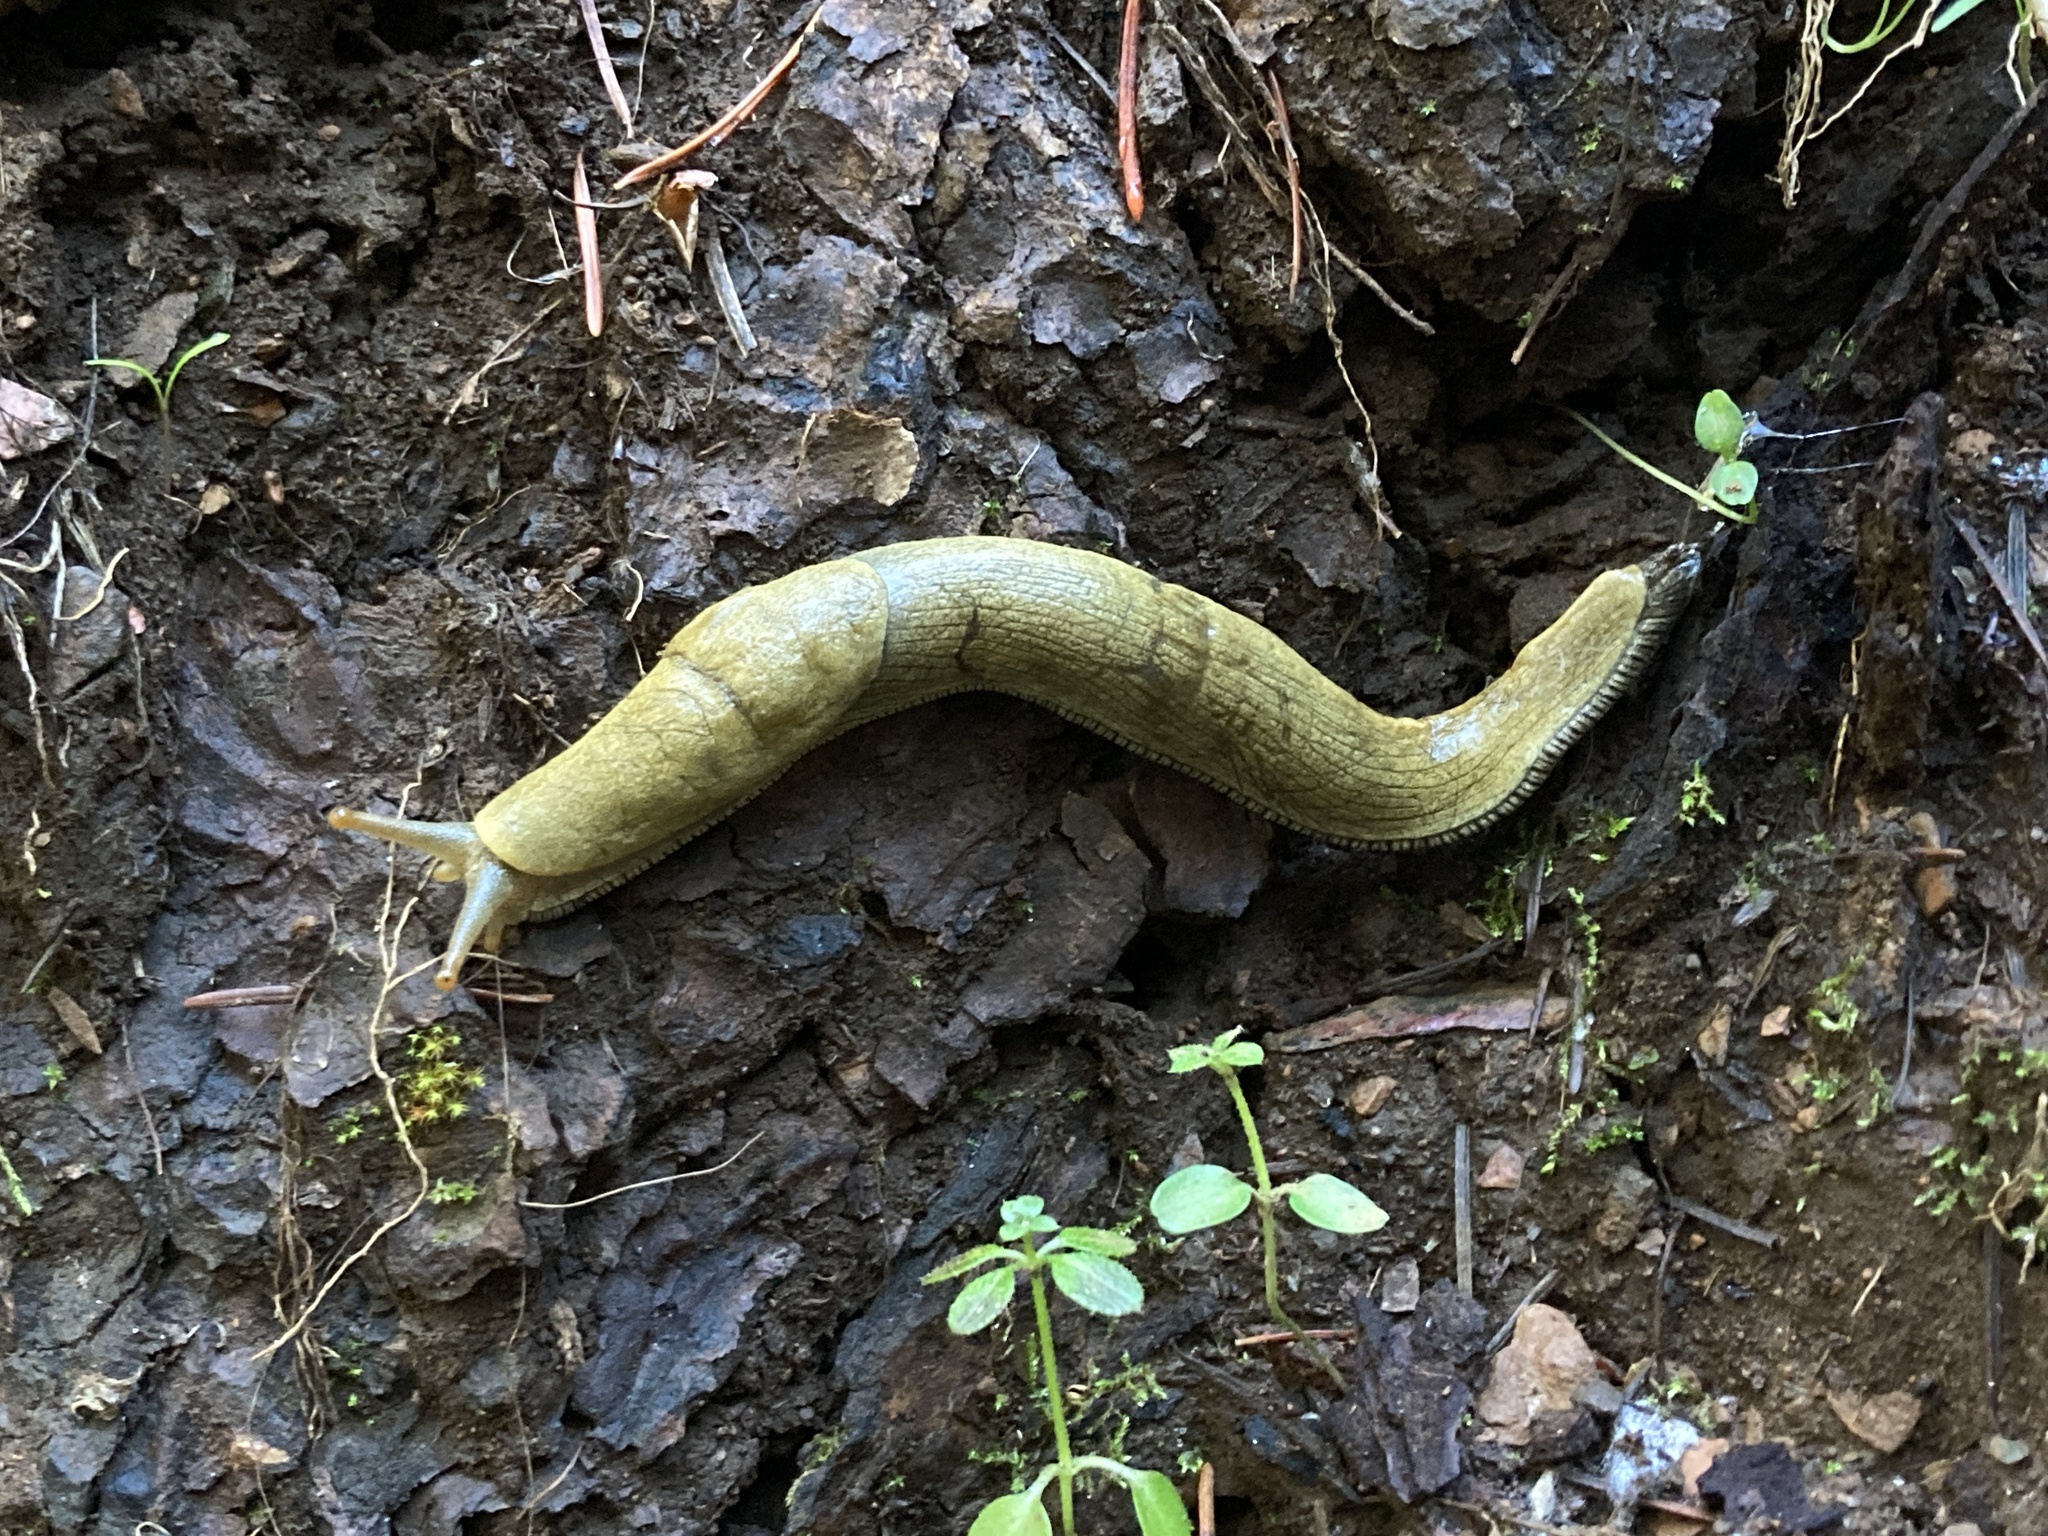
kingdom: Animalia
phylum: Mollusca
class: Gastropoda
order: Stylommatophora
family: Ariolimacidae
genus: Ariolimax
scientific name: Ariolimax buttoni
